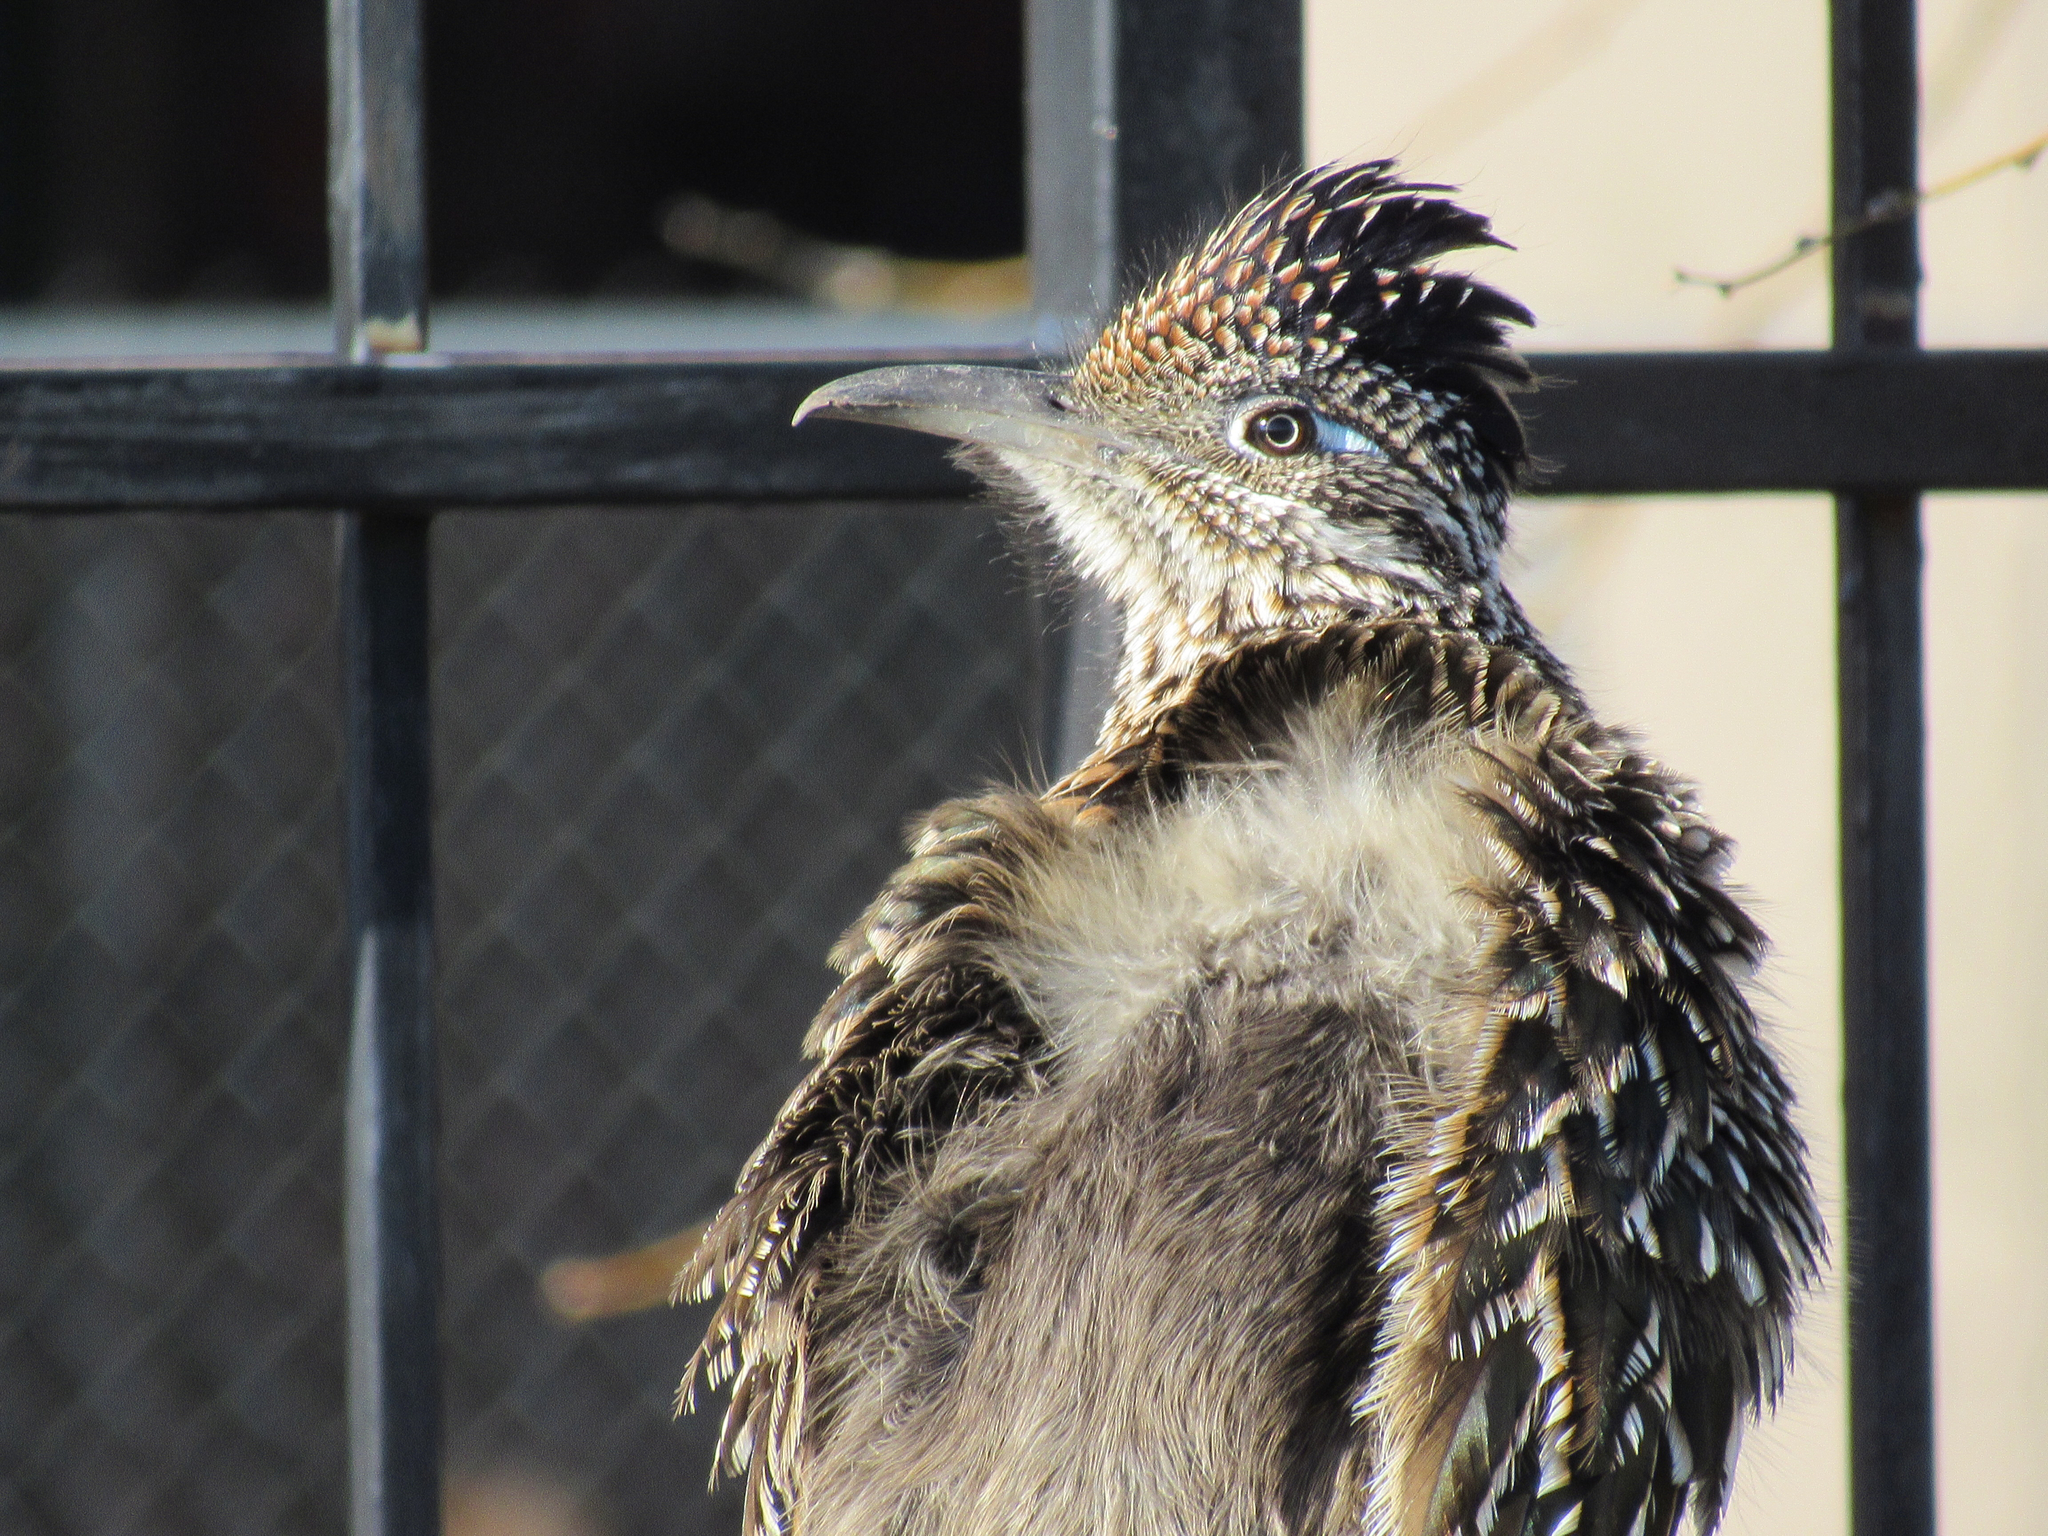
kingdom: Animalia
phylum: Chordata
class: Aves
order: Cuculiformes
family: Cuculidae
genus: Geococcyx
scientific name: Geococcyx californianus
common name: Greater roadrunner
